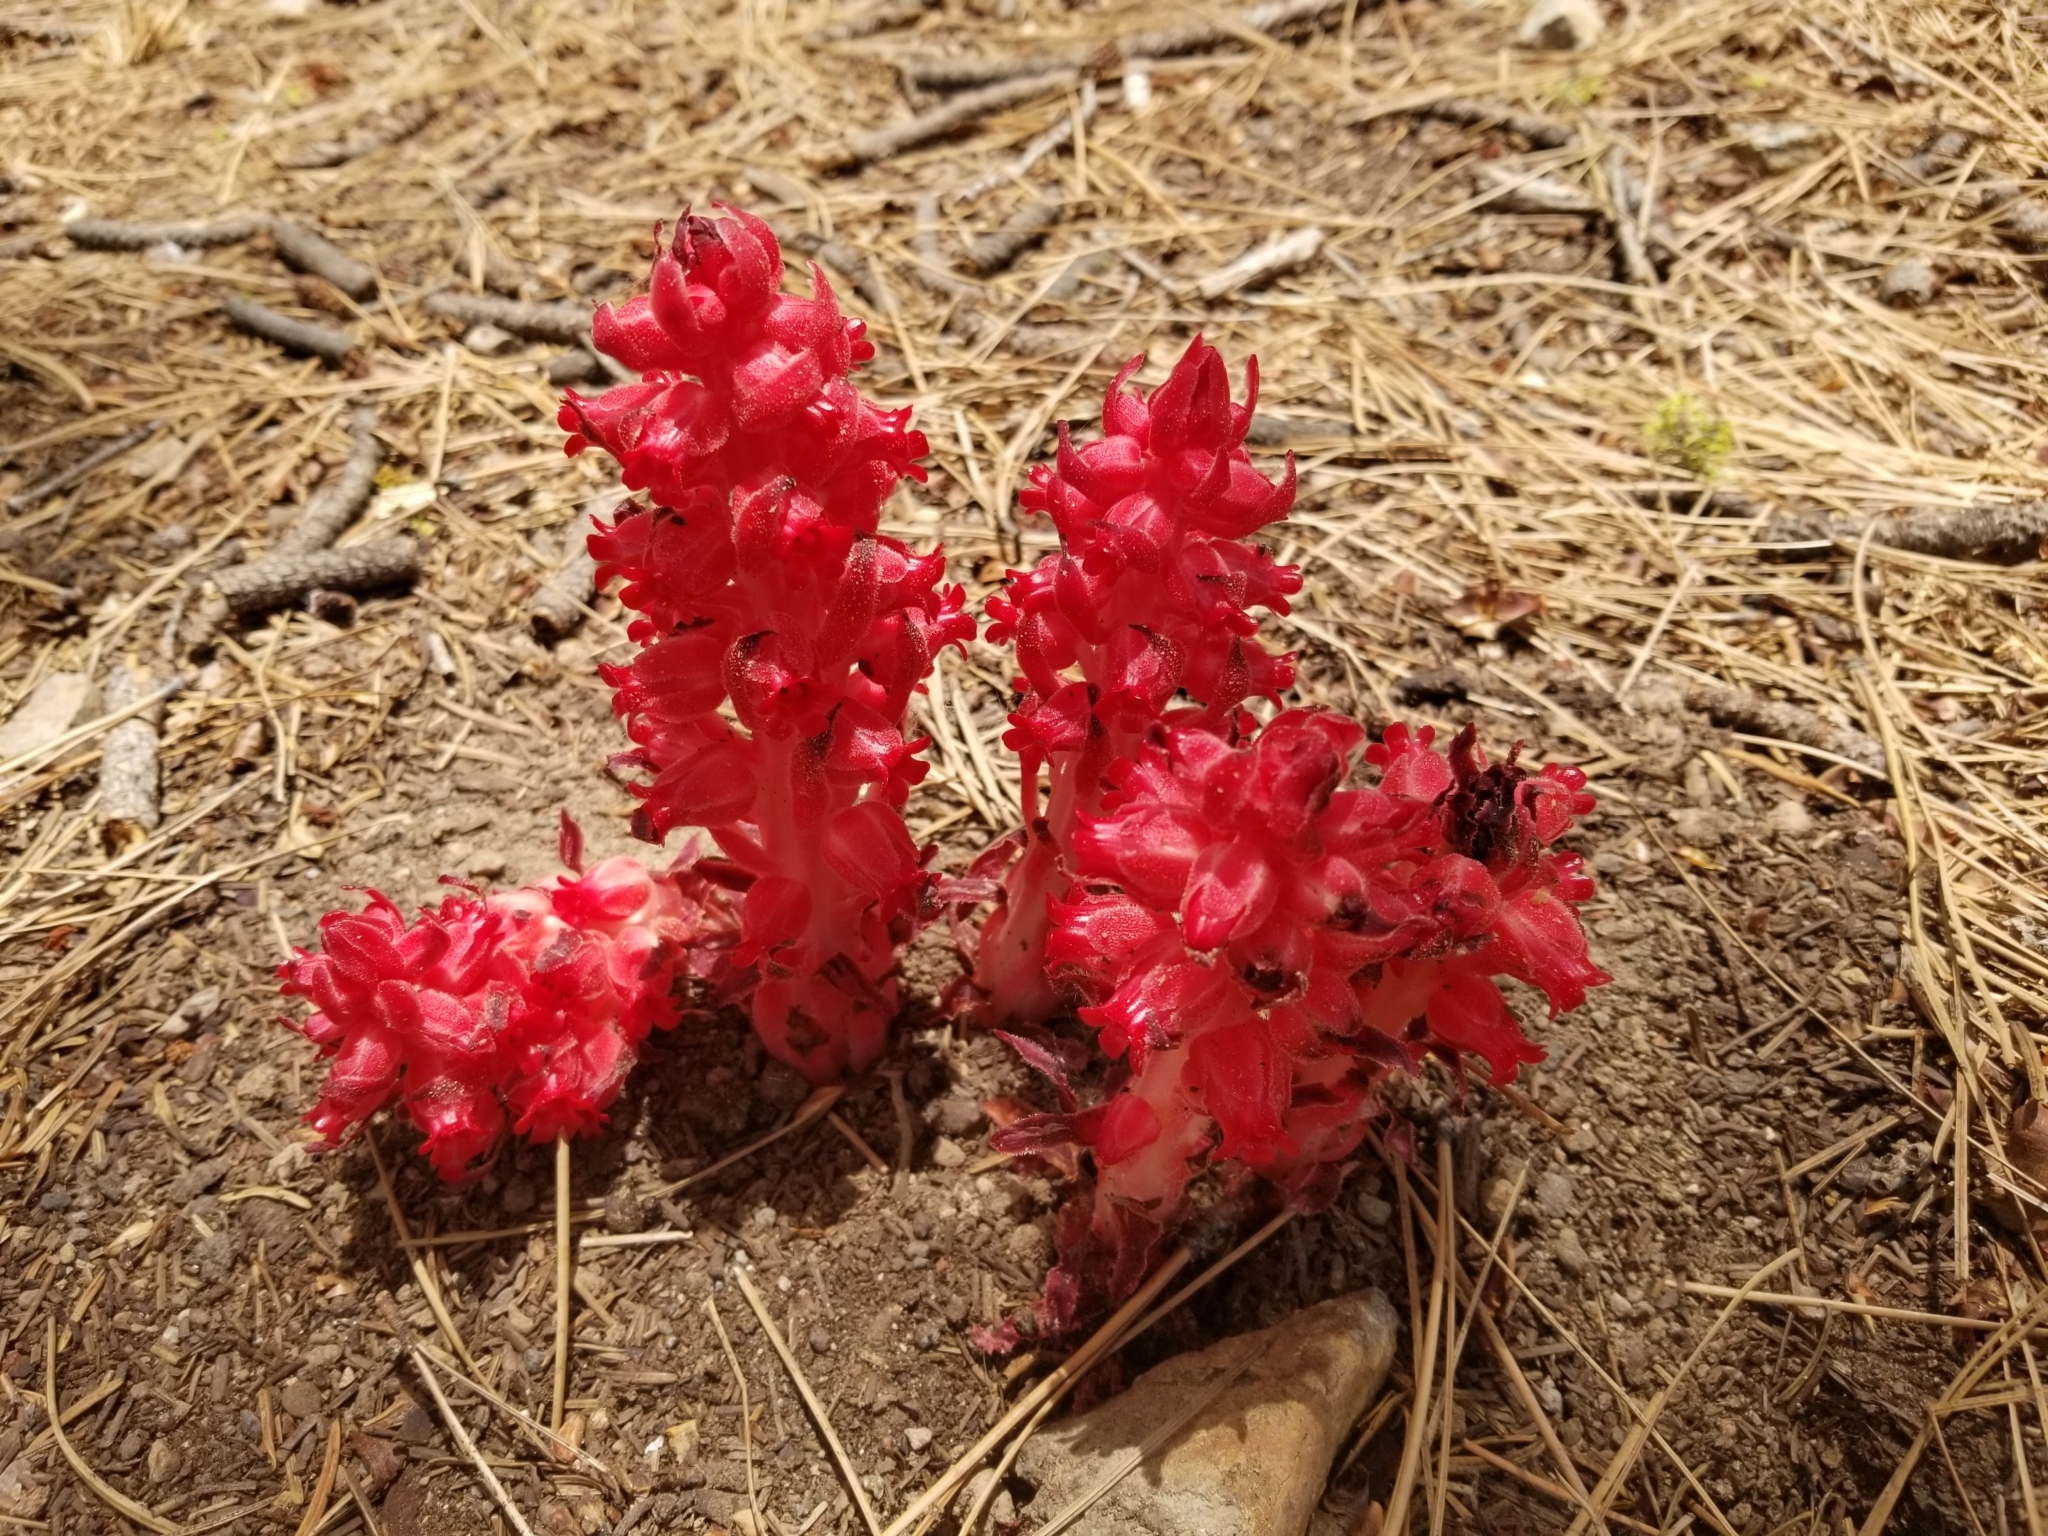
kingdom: Plantae
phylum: Tracheophyta
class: Magnoliopsida
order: Ericales
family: Ericaceae
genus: Sarcodes
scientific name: Sarcodes sanguinea
